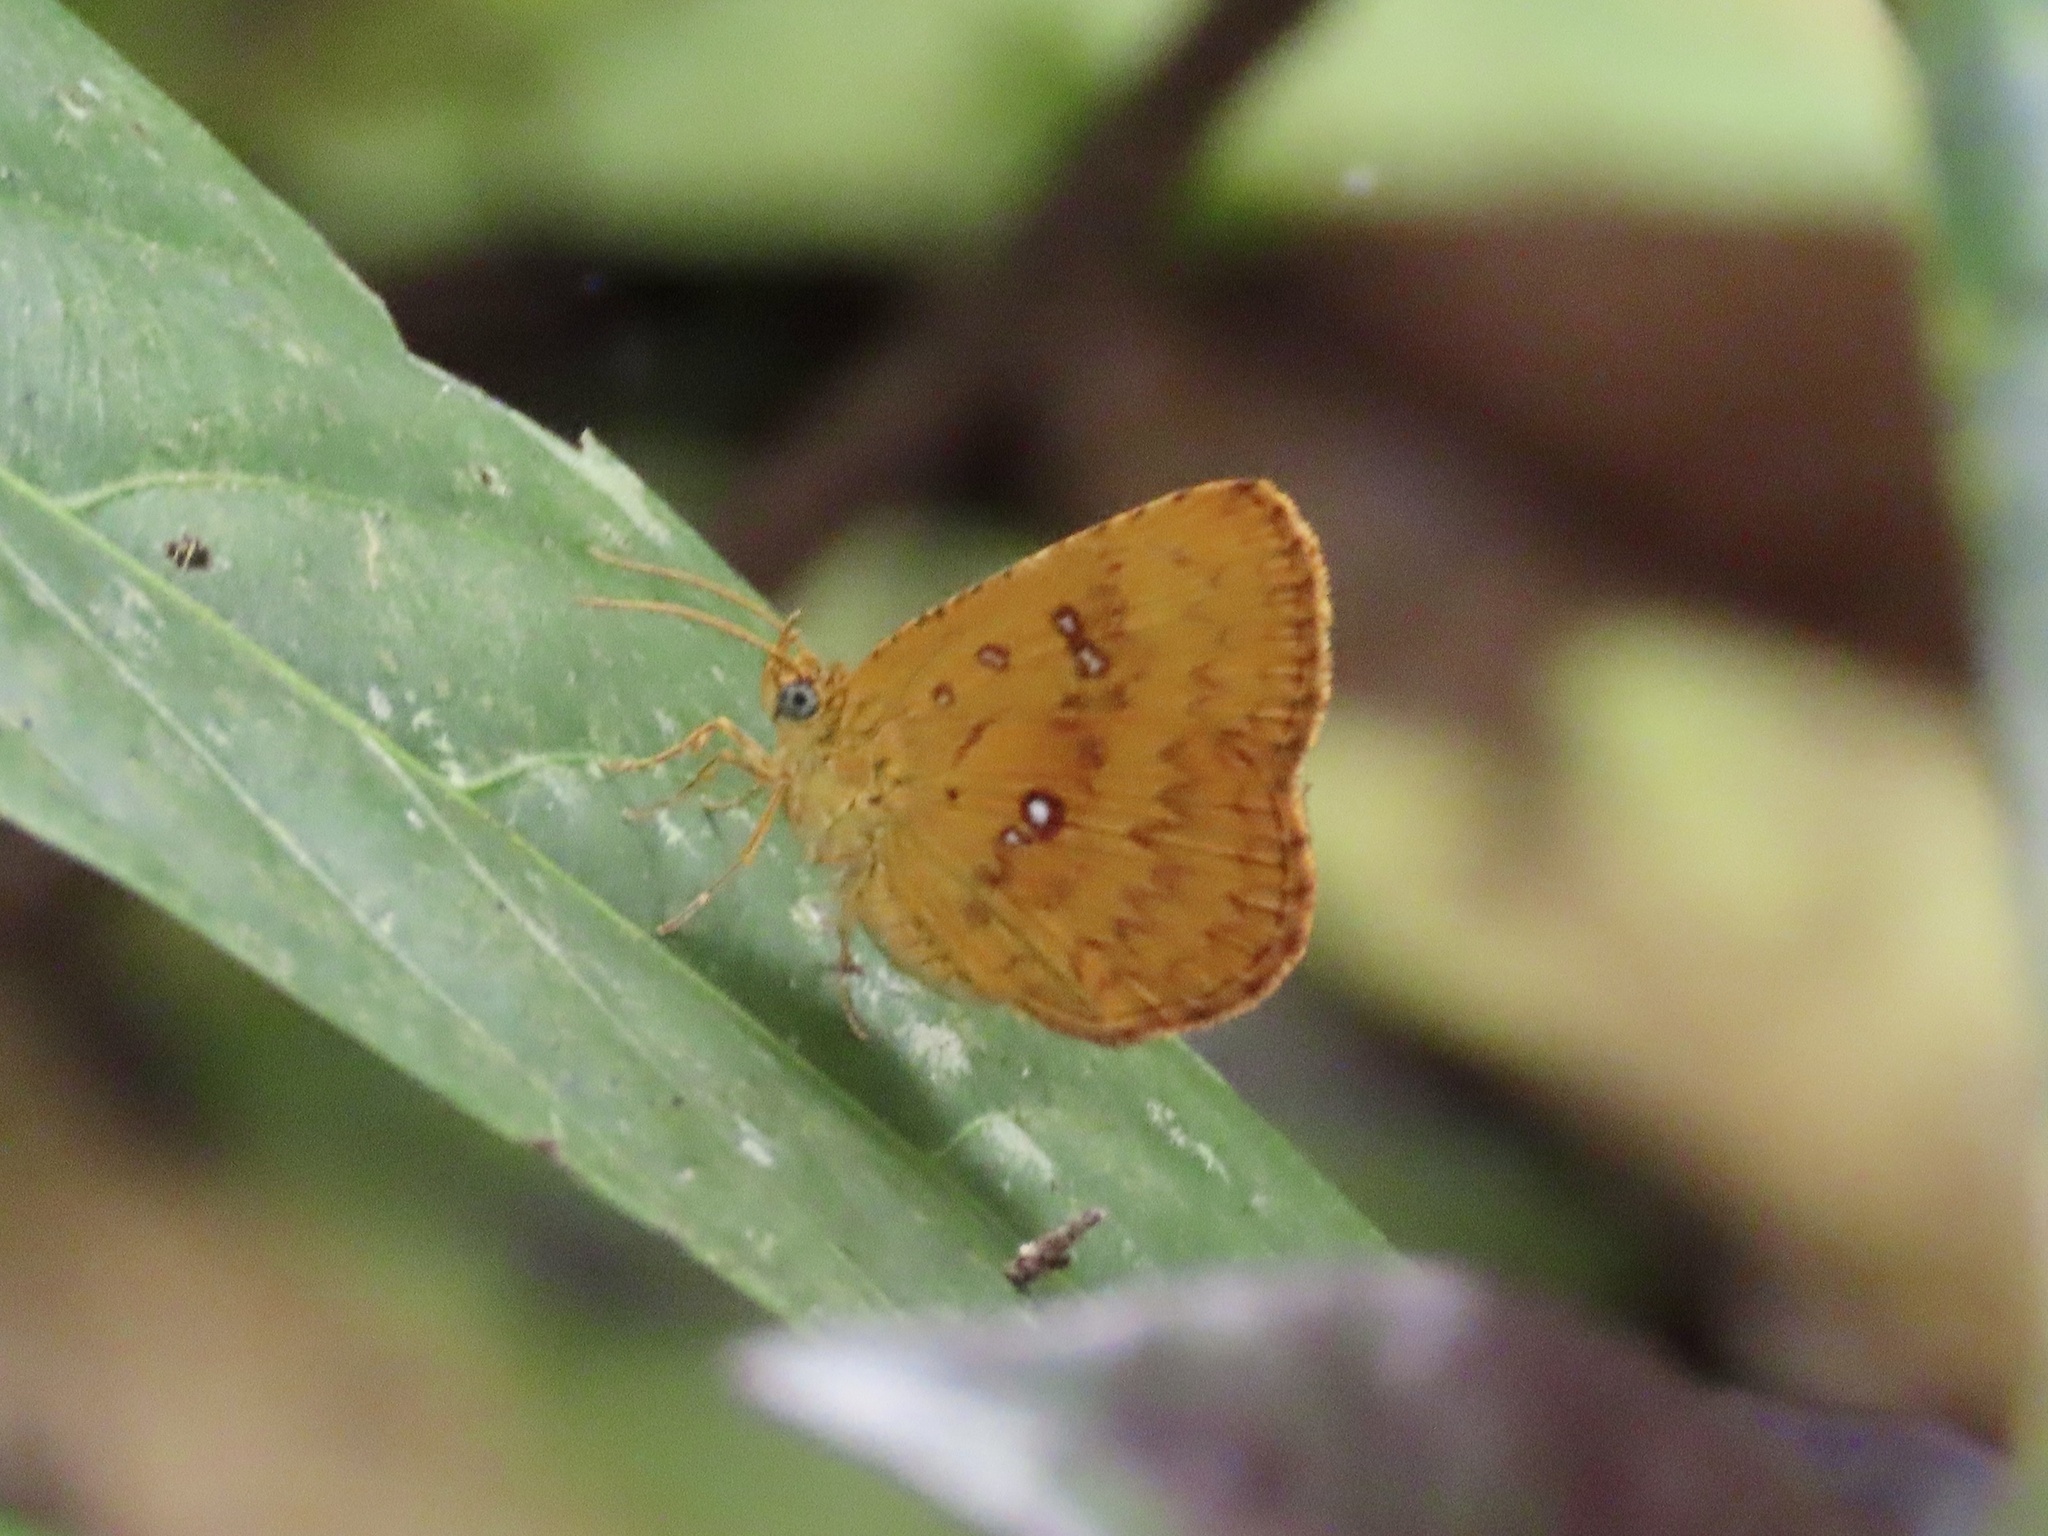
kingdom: Animalia
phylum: Arthropoda
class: Insecta
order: Lepidoptera
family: Callidulidae
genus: Tetragonus
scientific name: Tetragonus lycaenoides
